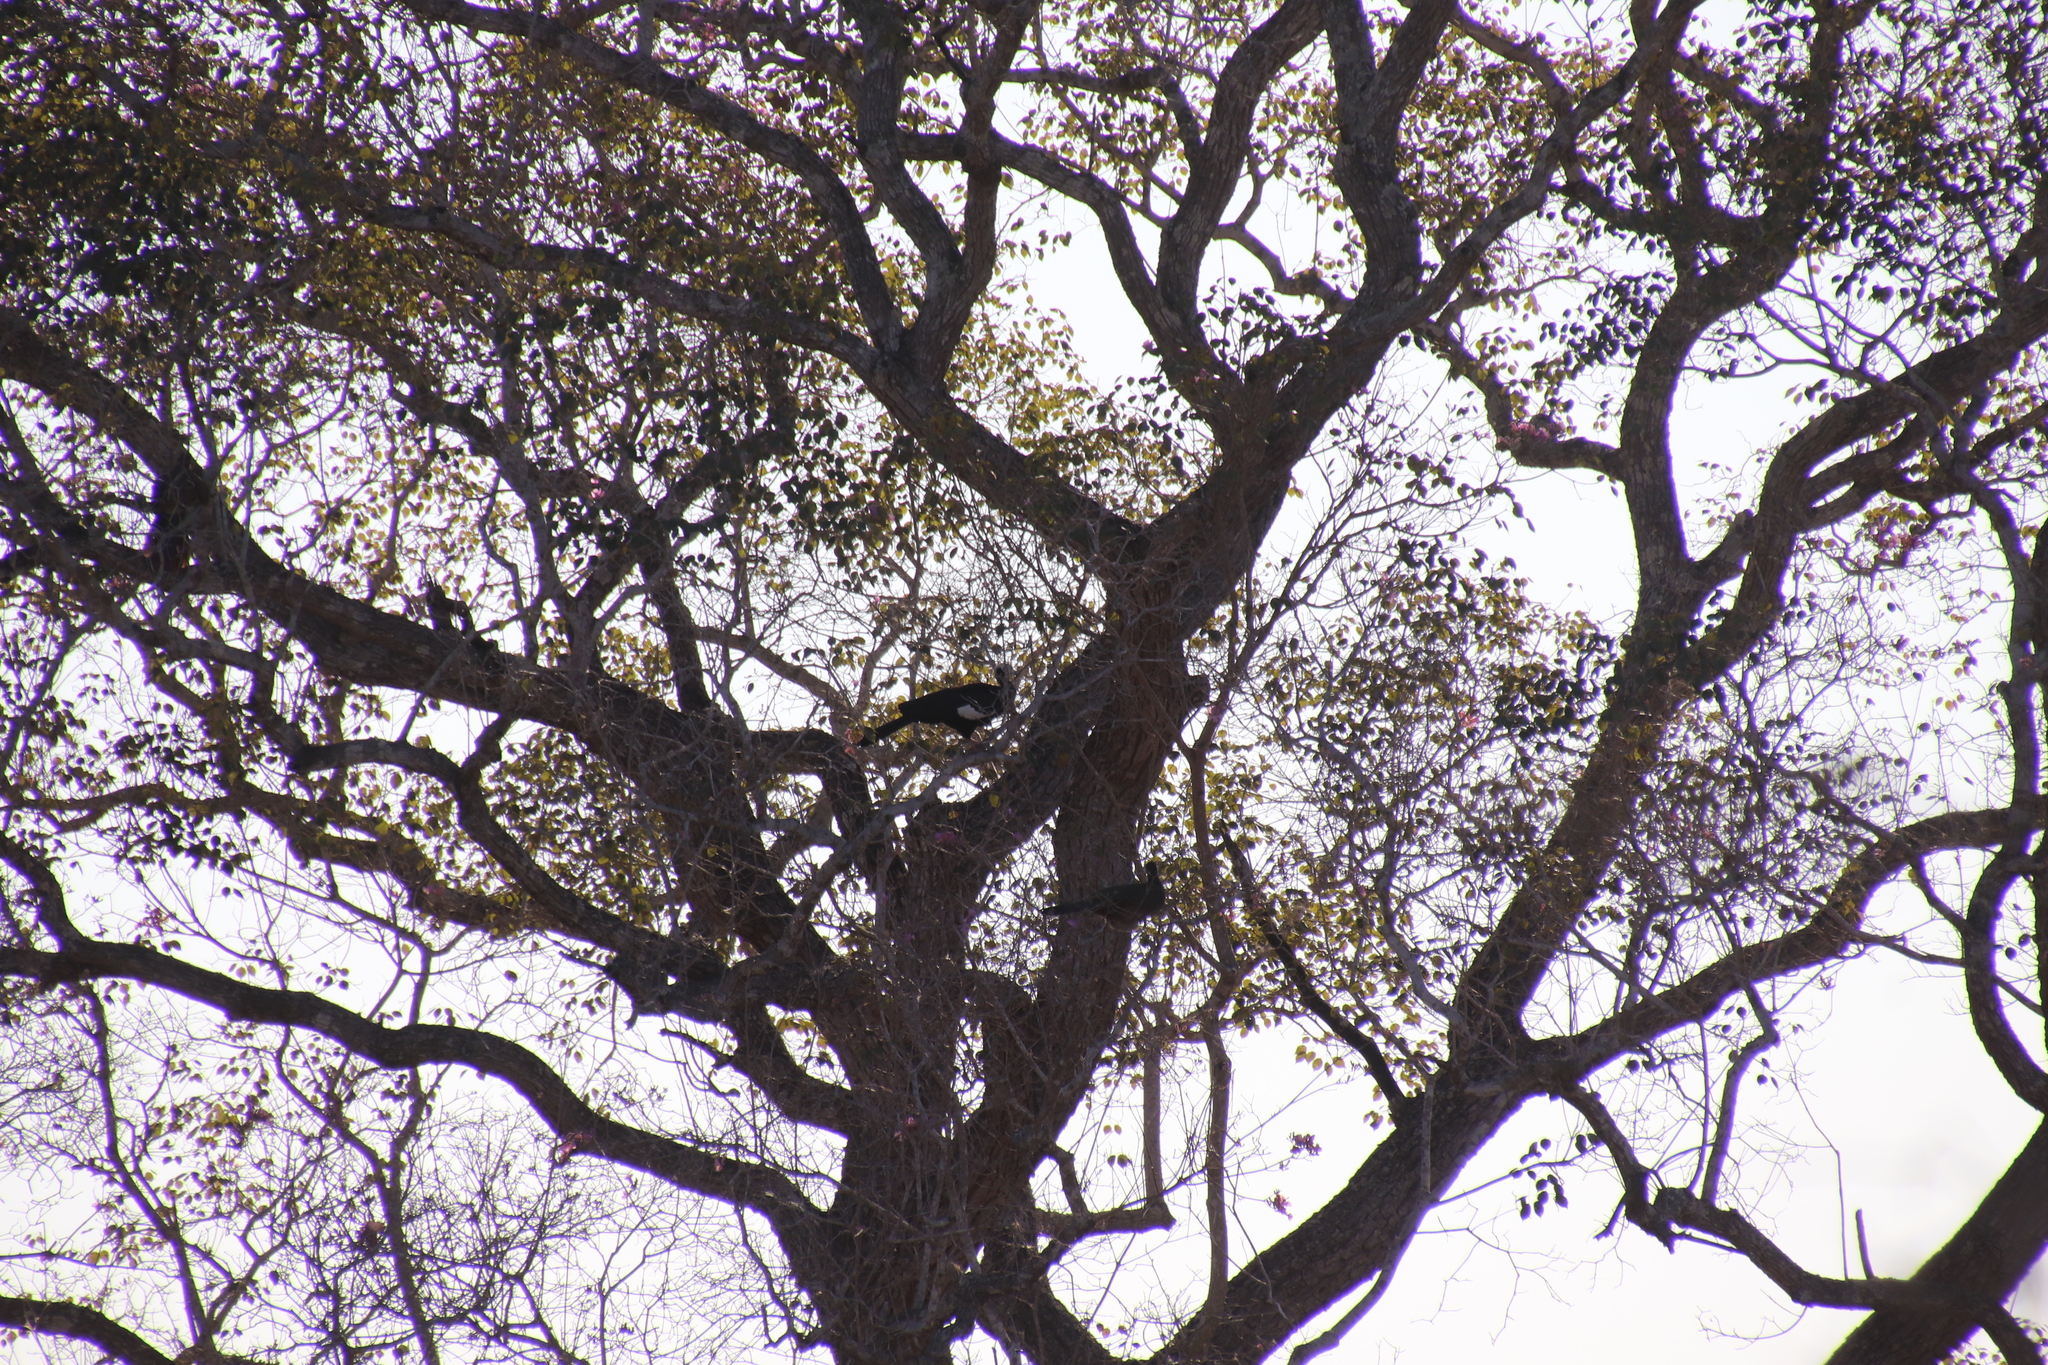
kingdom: Animalia
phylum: Chordata
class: Aves
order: Galliformes
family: Cracidae
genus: Pipile
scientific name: Pipile cumanensis
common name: Blue-throated piping-guan
